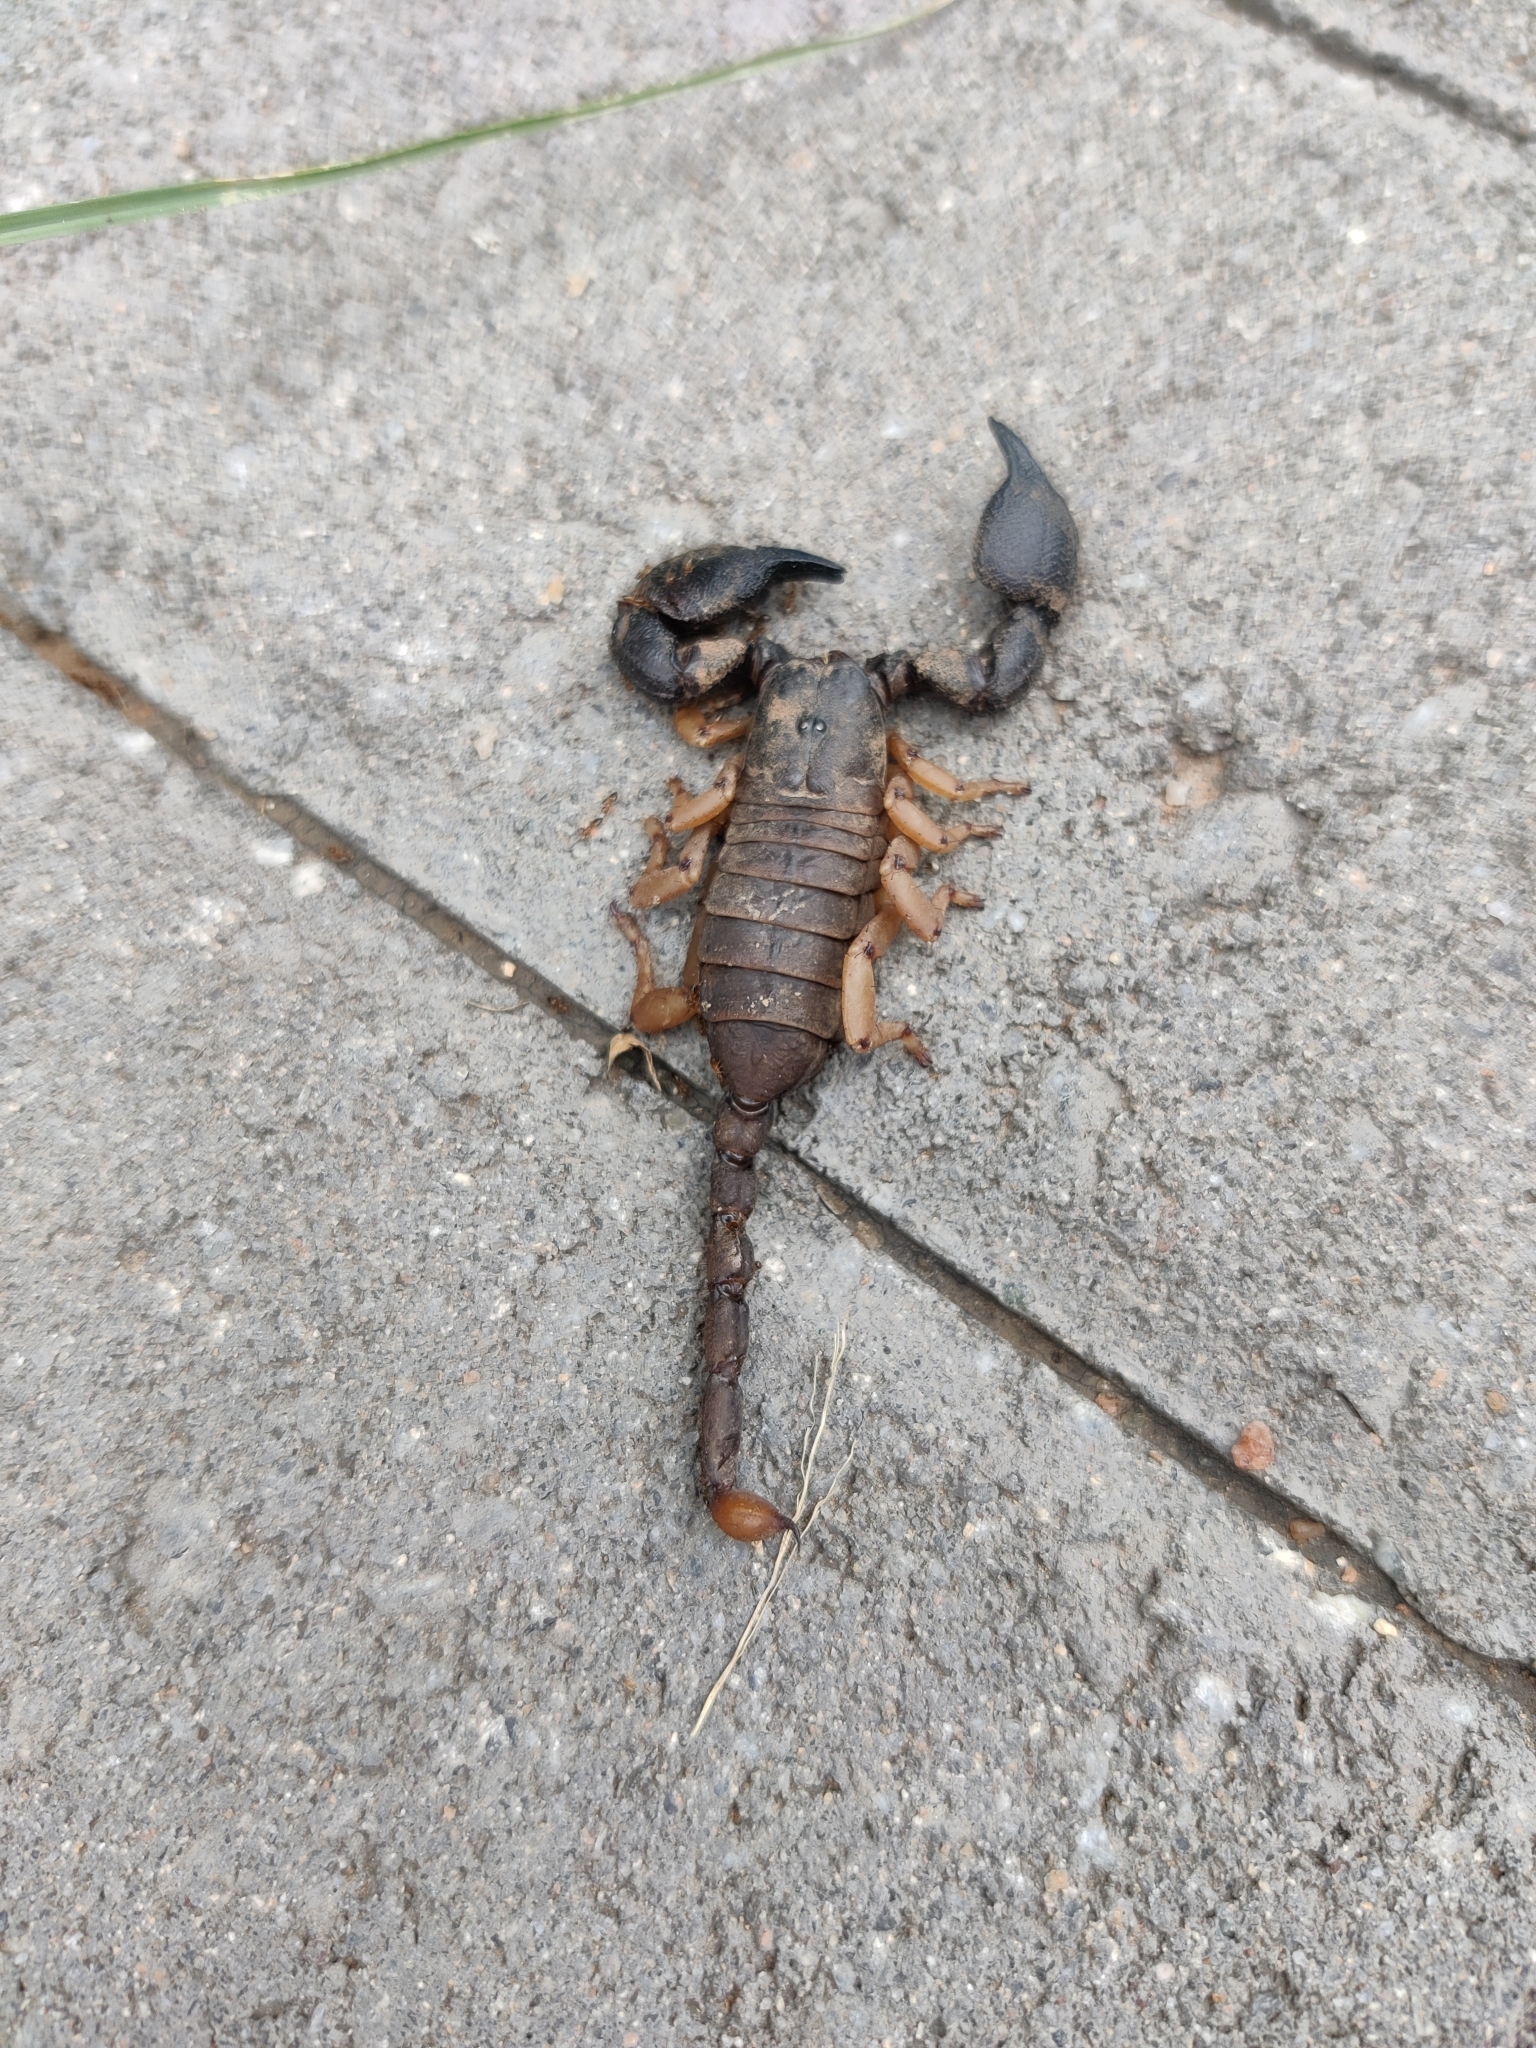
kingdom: Animalia
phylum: Arthropoda
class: Arachnida
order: Scorpiones
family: Hormuridae
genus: Cheloctonus
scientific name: Cheloctonus jonesii
